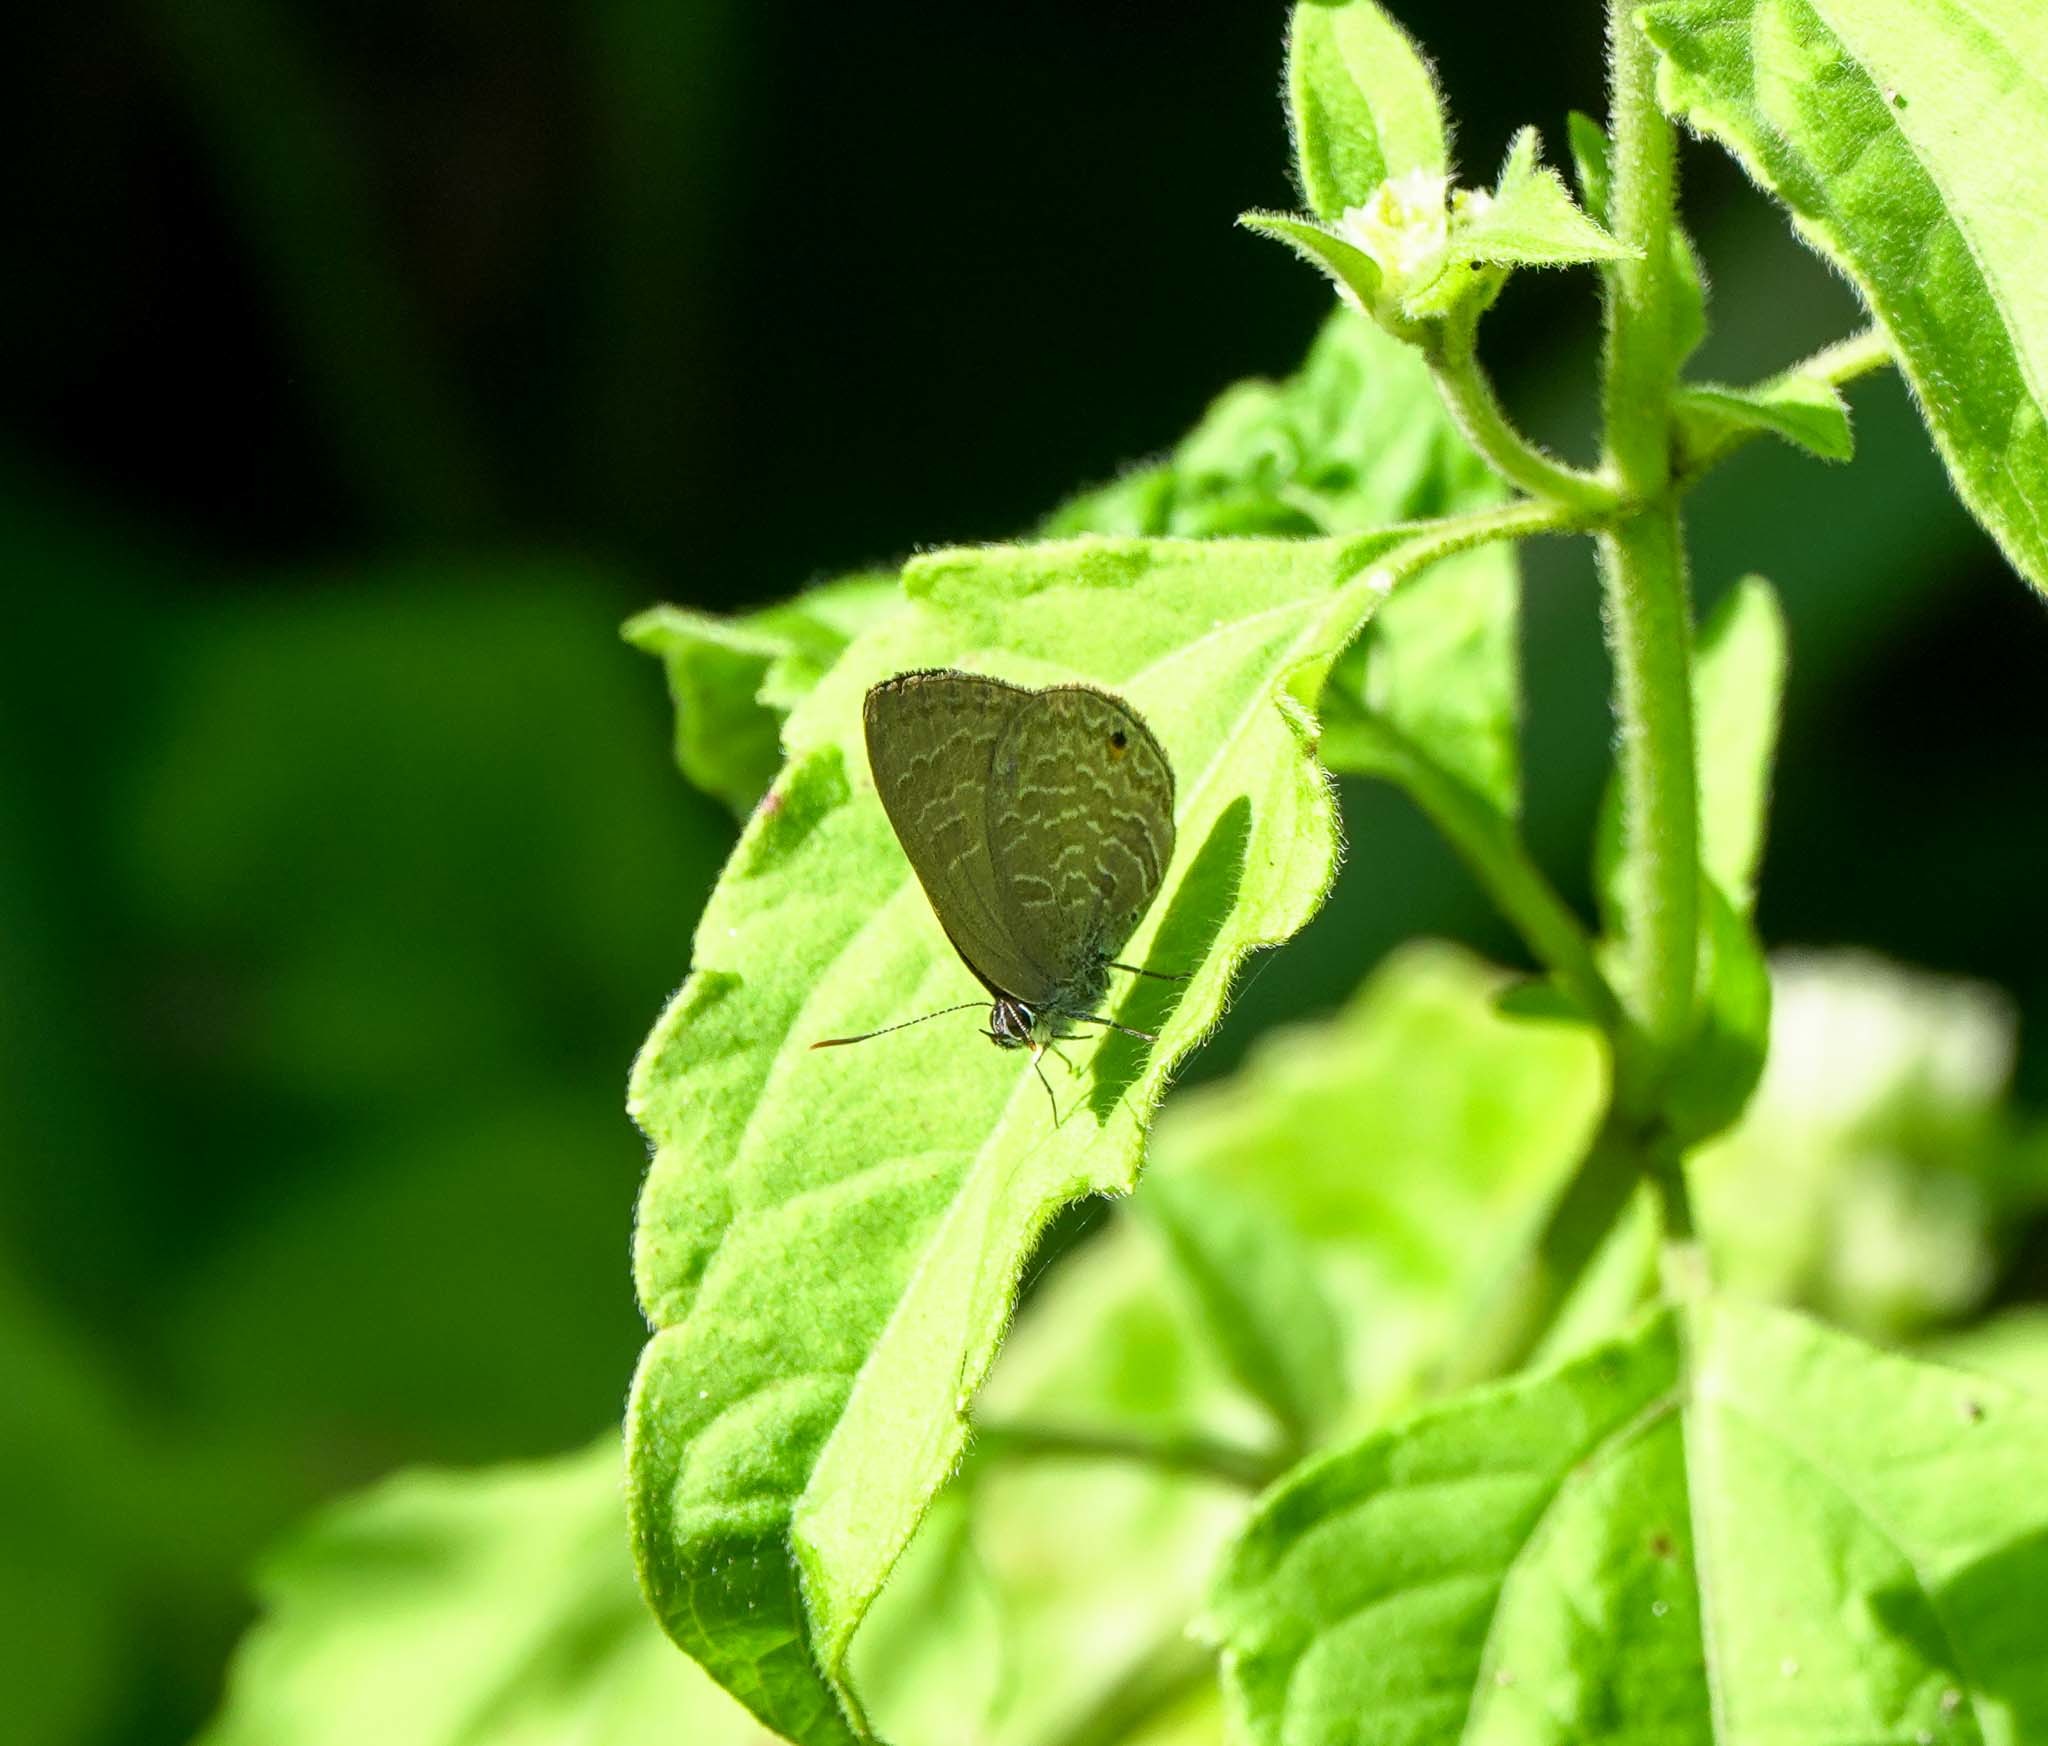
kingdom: Animalia
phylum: Arthropoda
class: Insecta
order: Lepidoptera
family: Lycaenidae
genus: Anthene
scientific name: Anthene emolus
